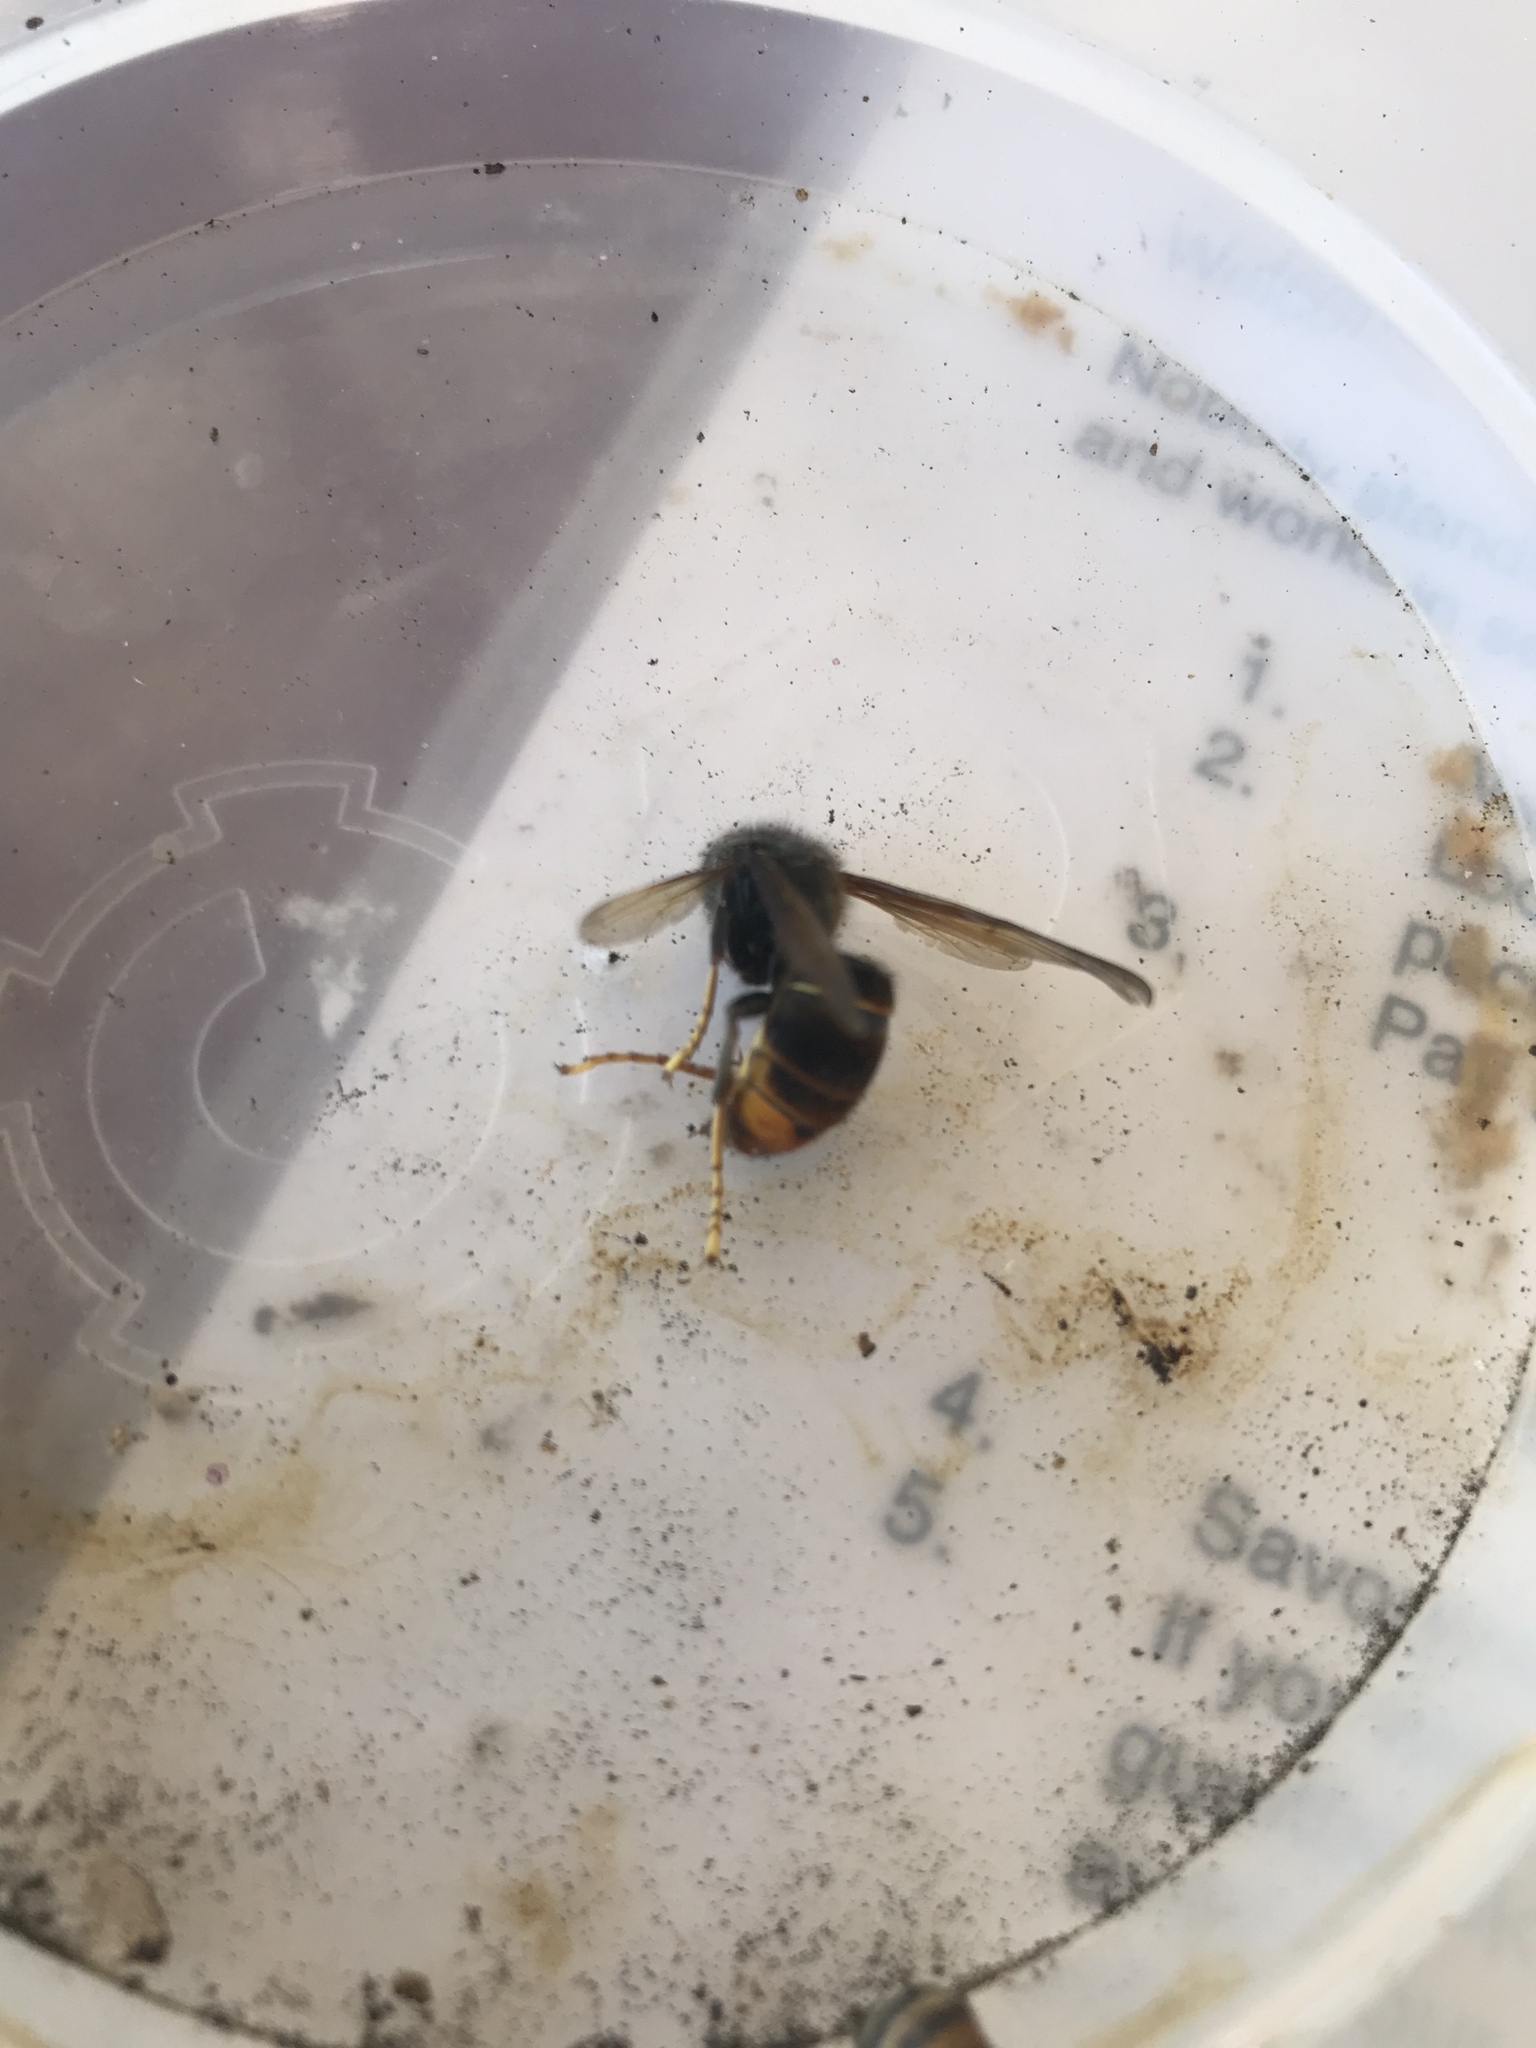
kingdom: Animalia
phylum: Arthropoda
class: Insecta
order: Hymenoptera
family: Vespidae
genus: Vespa
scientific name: Vespa velutina
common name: Asian hornet
